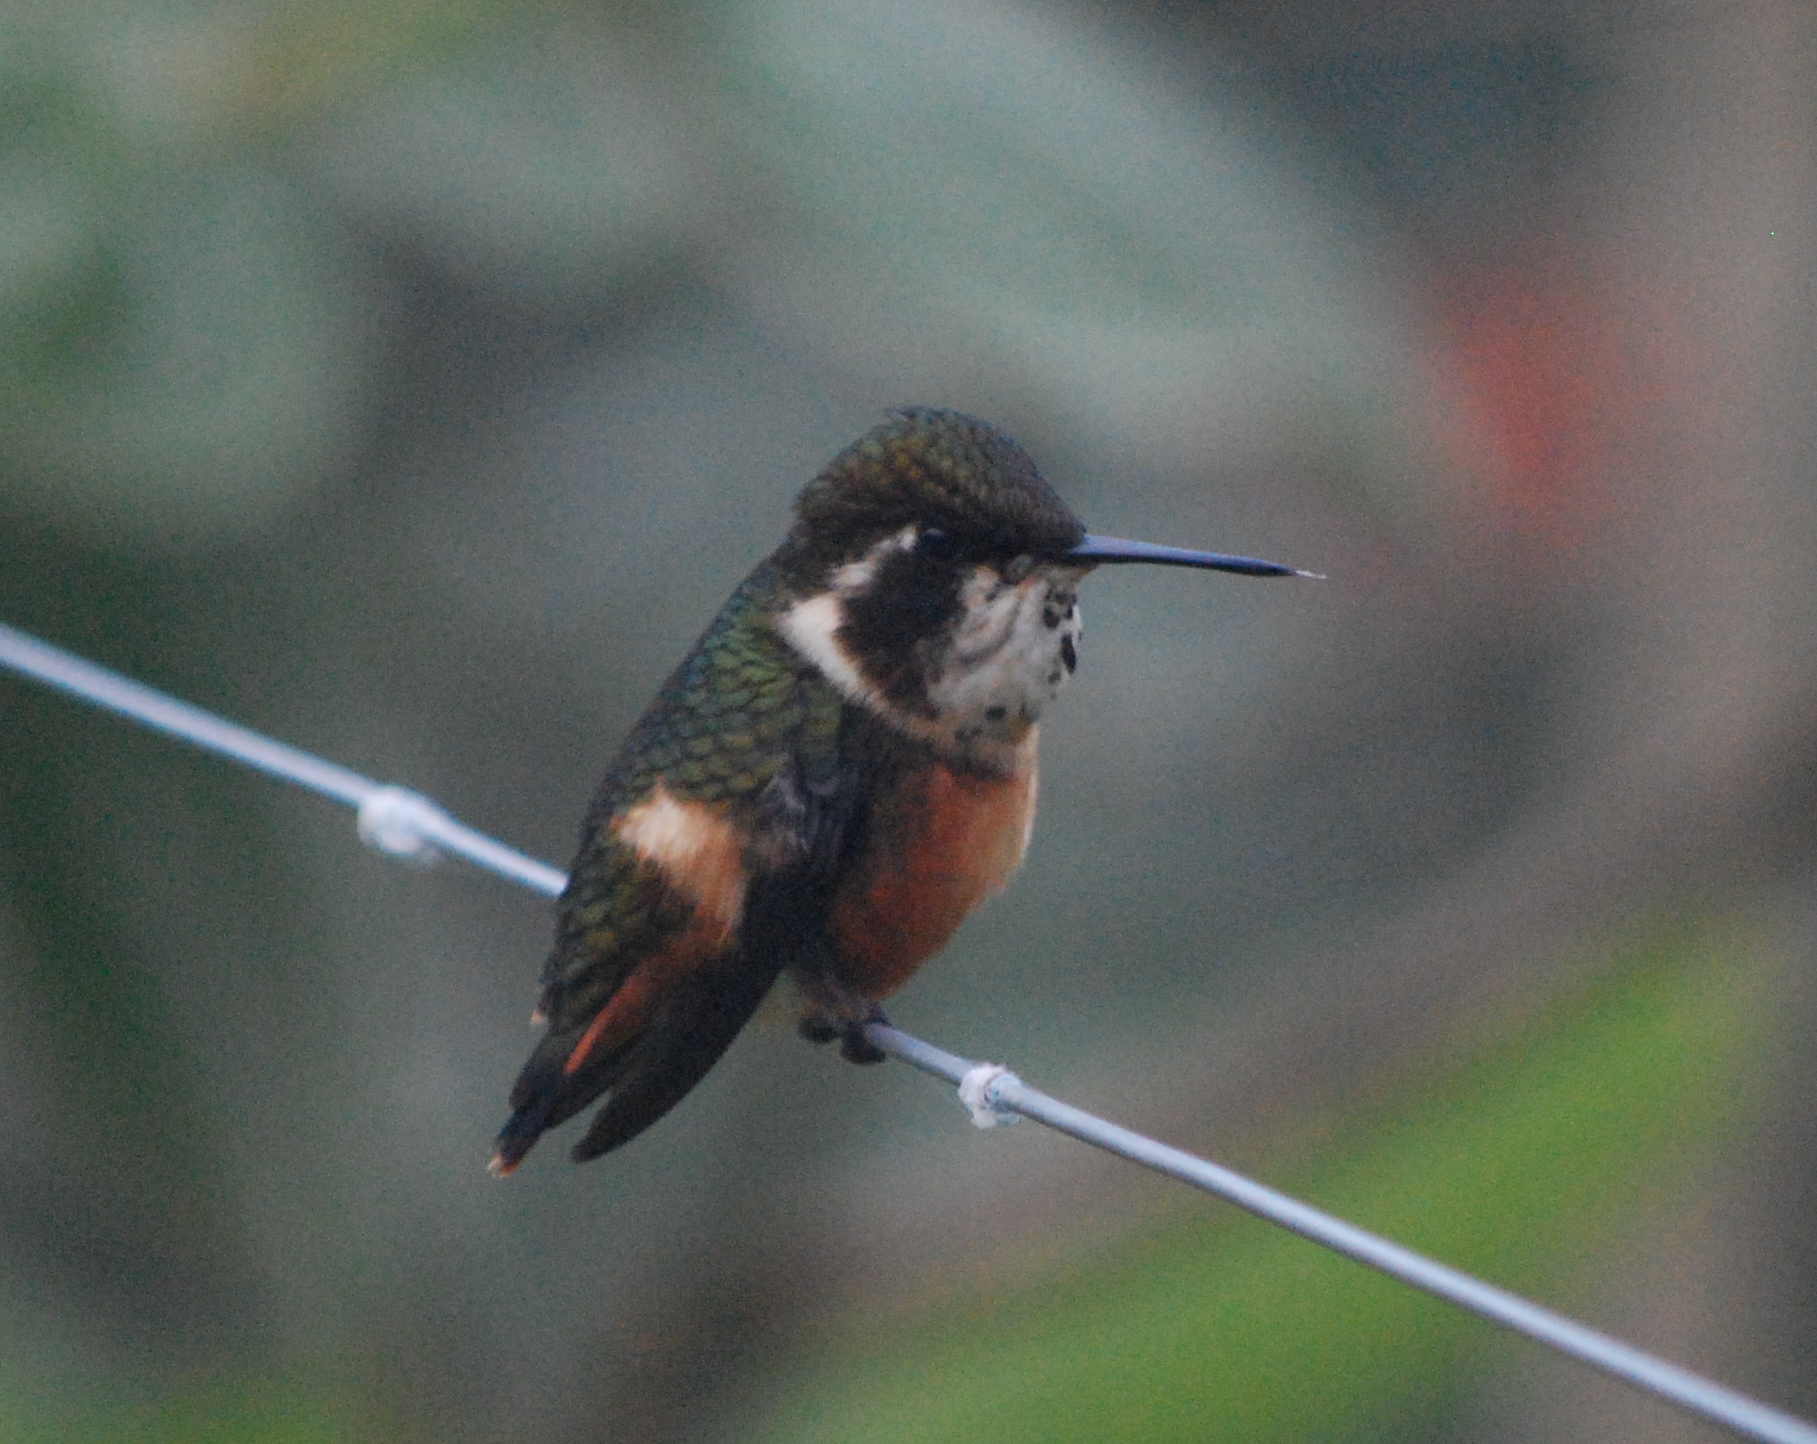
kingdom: Animalia
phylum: Chordata
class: Aves
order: Apodiformes
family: Trochilidae
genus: Calliphlox
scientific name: Calliphlox mitchellii
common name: Purple-throated woodstar
